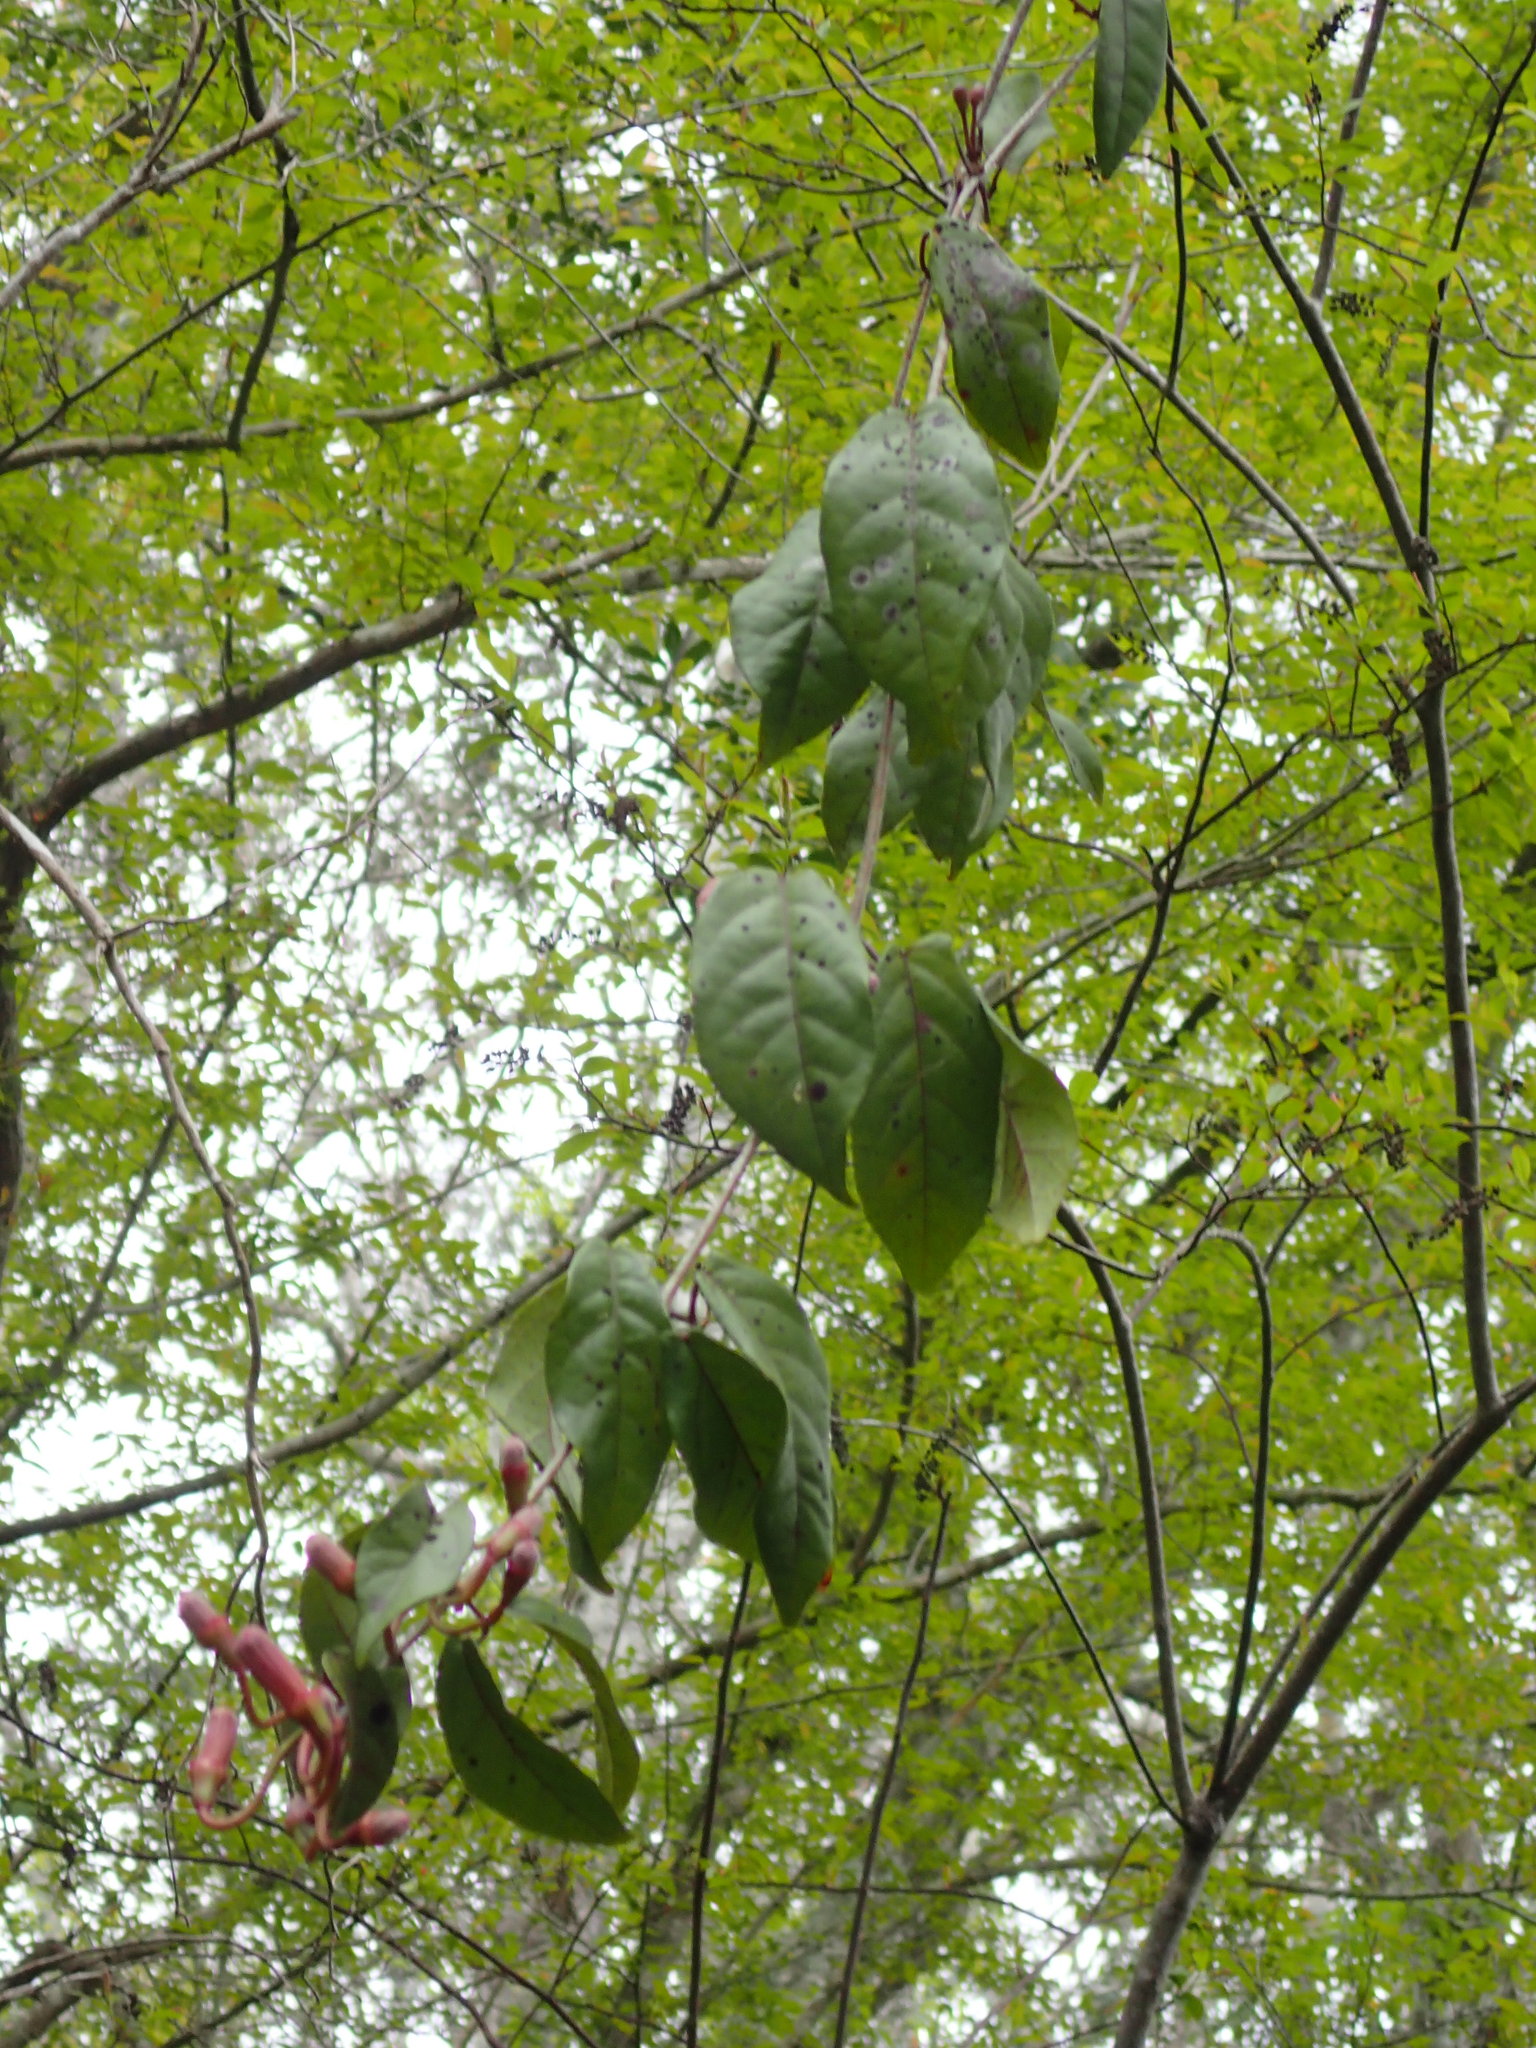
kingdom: Plantae
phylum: Tracheophyta
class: Magnoliopsida
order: Lamiales
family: Bignoniaceae
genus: Bignonia
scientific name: Bignonia capreolata
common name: Crossvine
